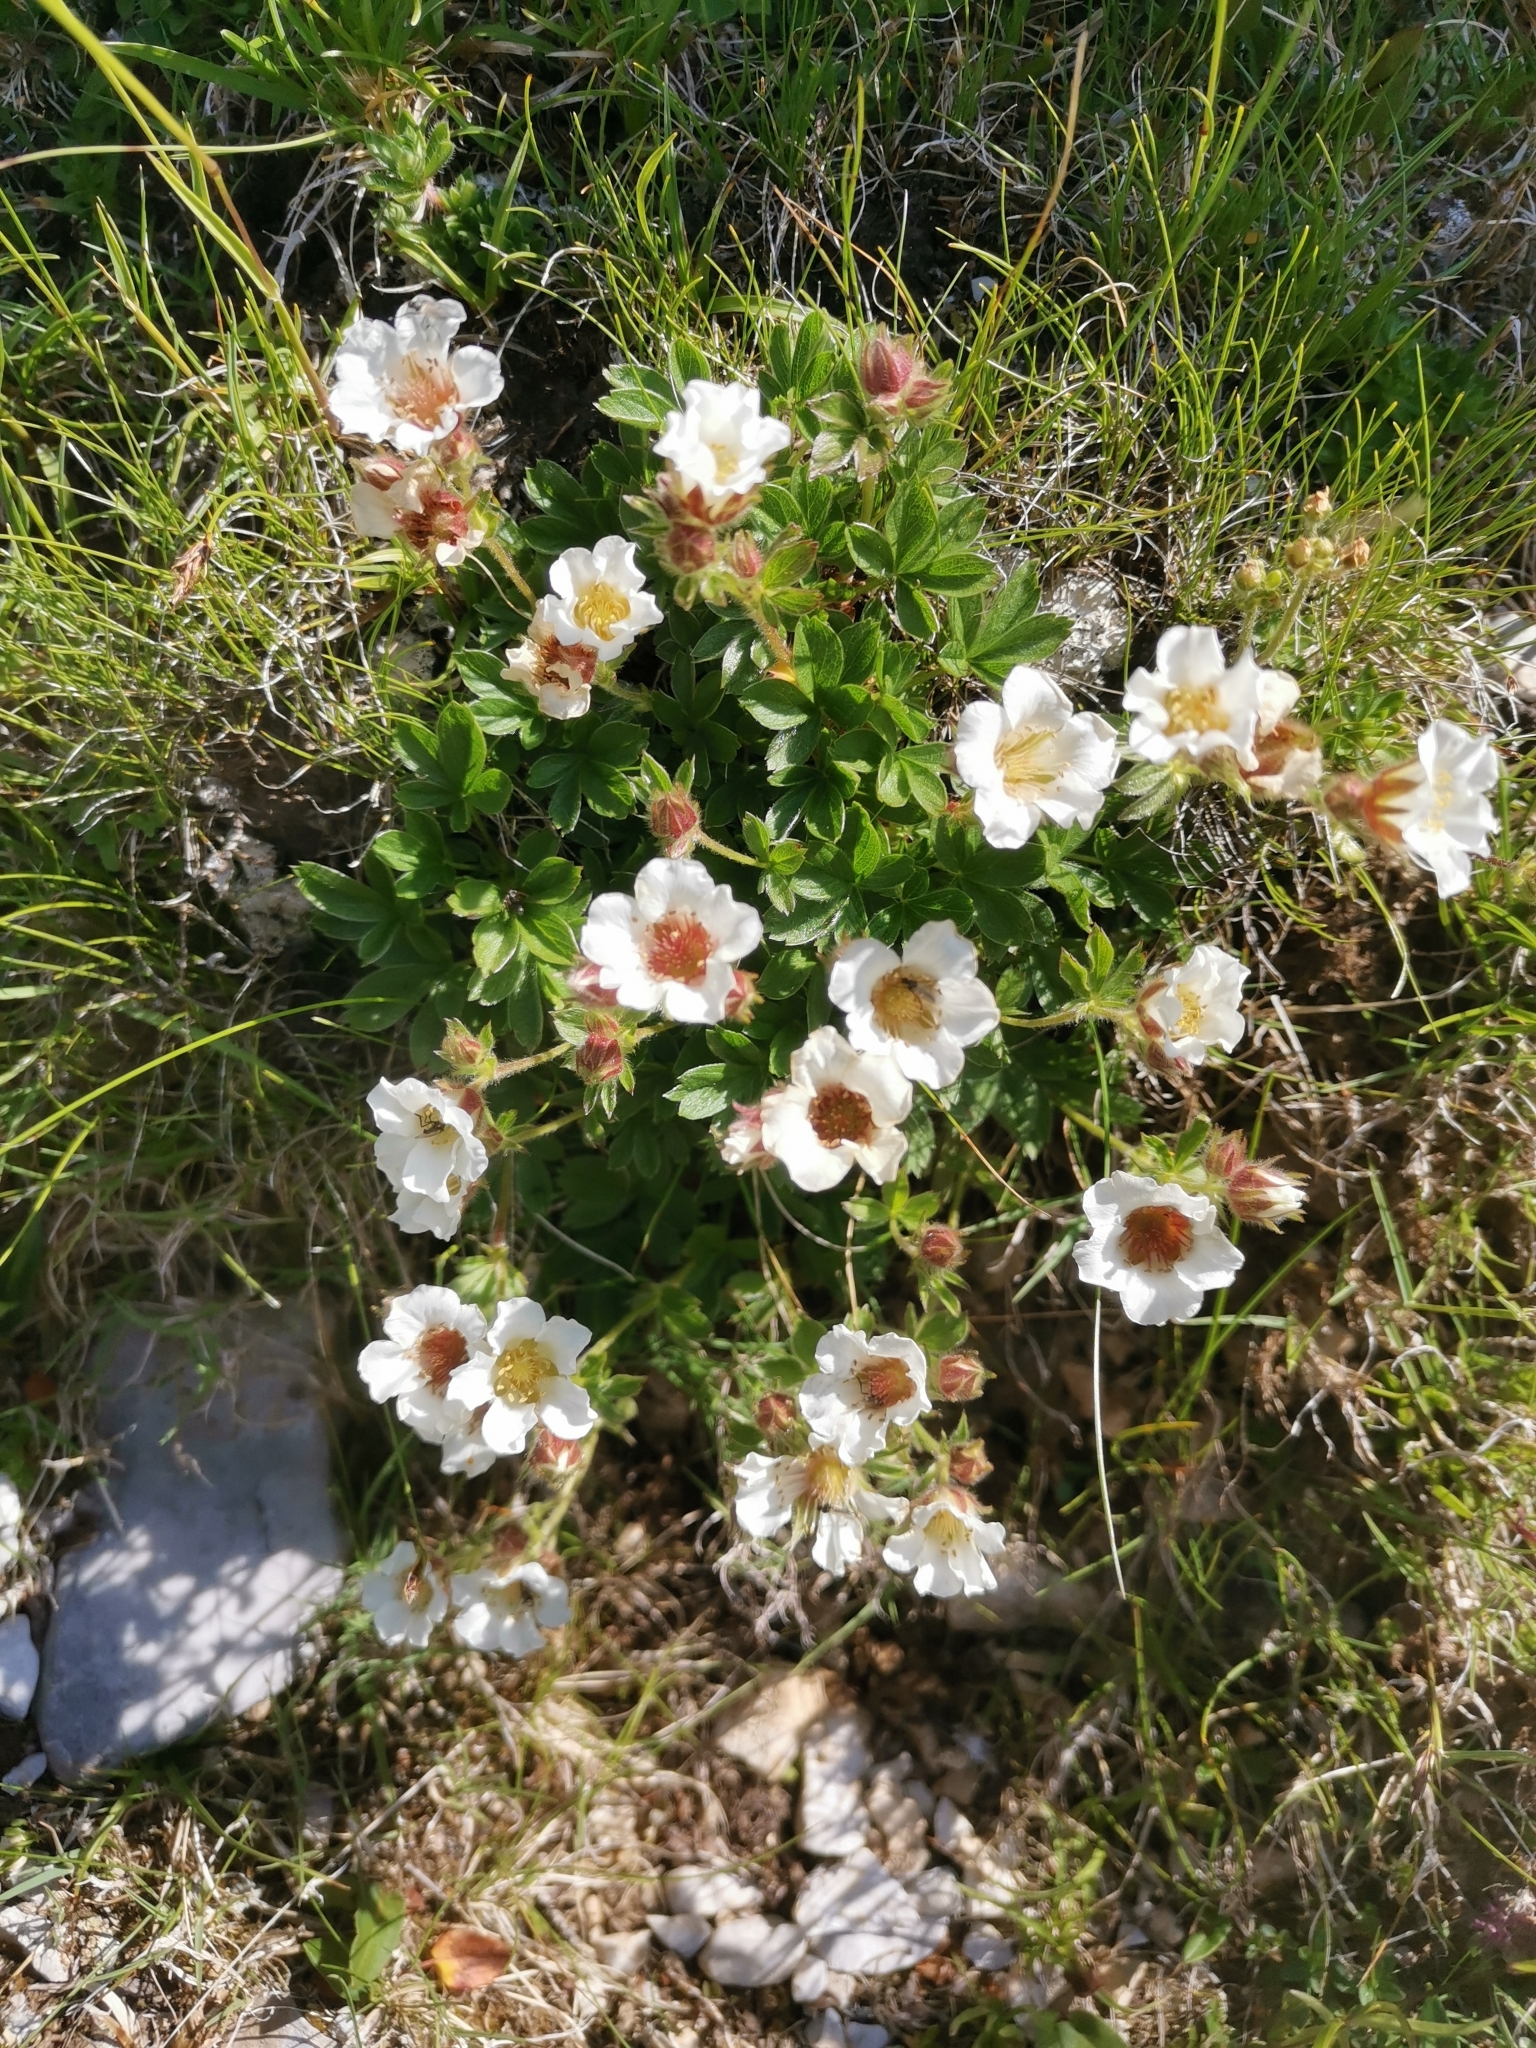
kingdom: Plantae
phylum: Tracheophyta
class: Magnoliopsida
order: Rosales
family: Rosaceae
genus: Potentilla
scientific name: Potentilla clusiana
